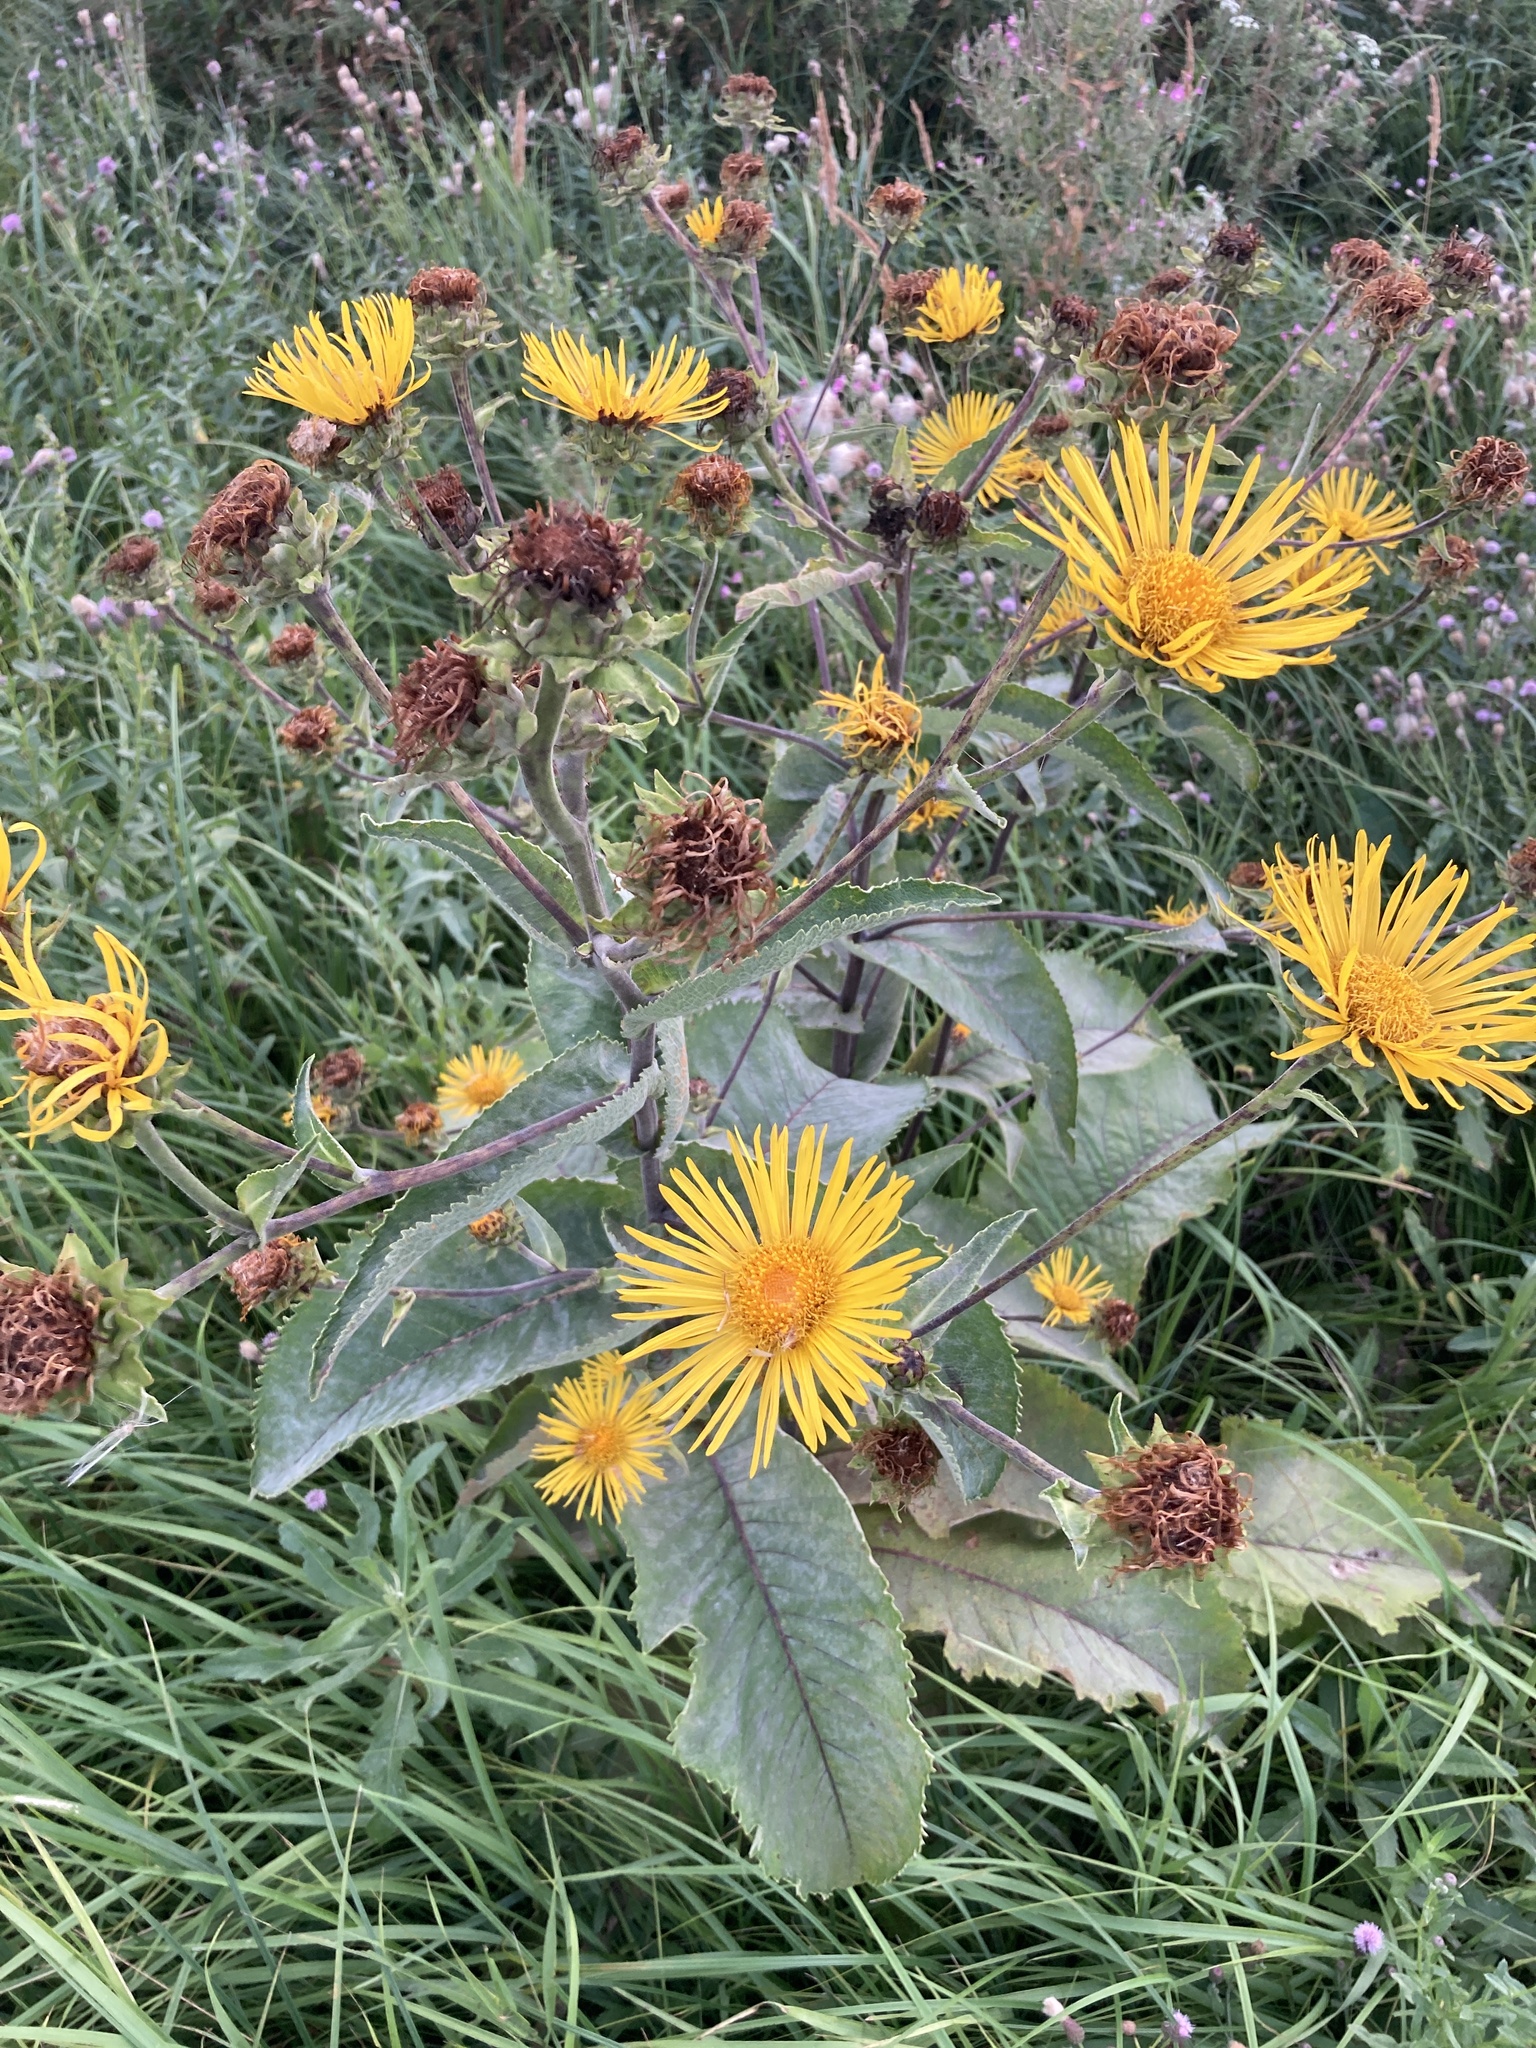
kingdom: Plantae
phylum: Tracheophyta
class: Magnoliopsida
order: Asterales
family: Asteraceae
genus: Inula
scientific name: Inula helenium
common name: Elecampane
